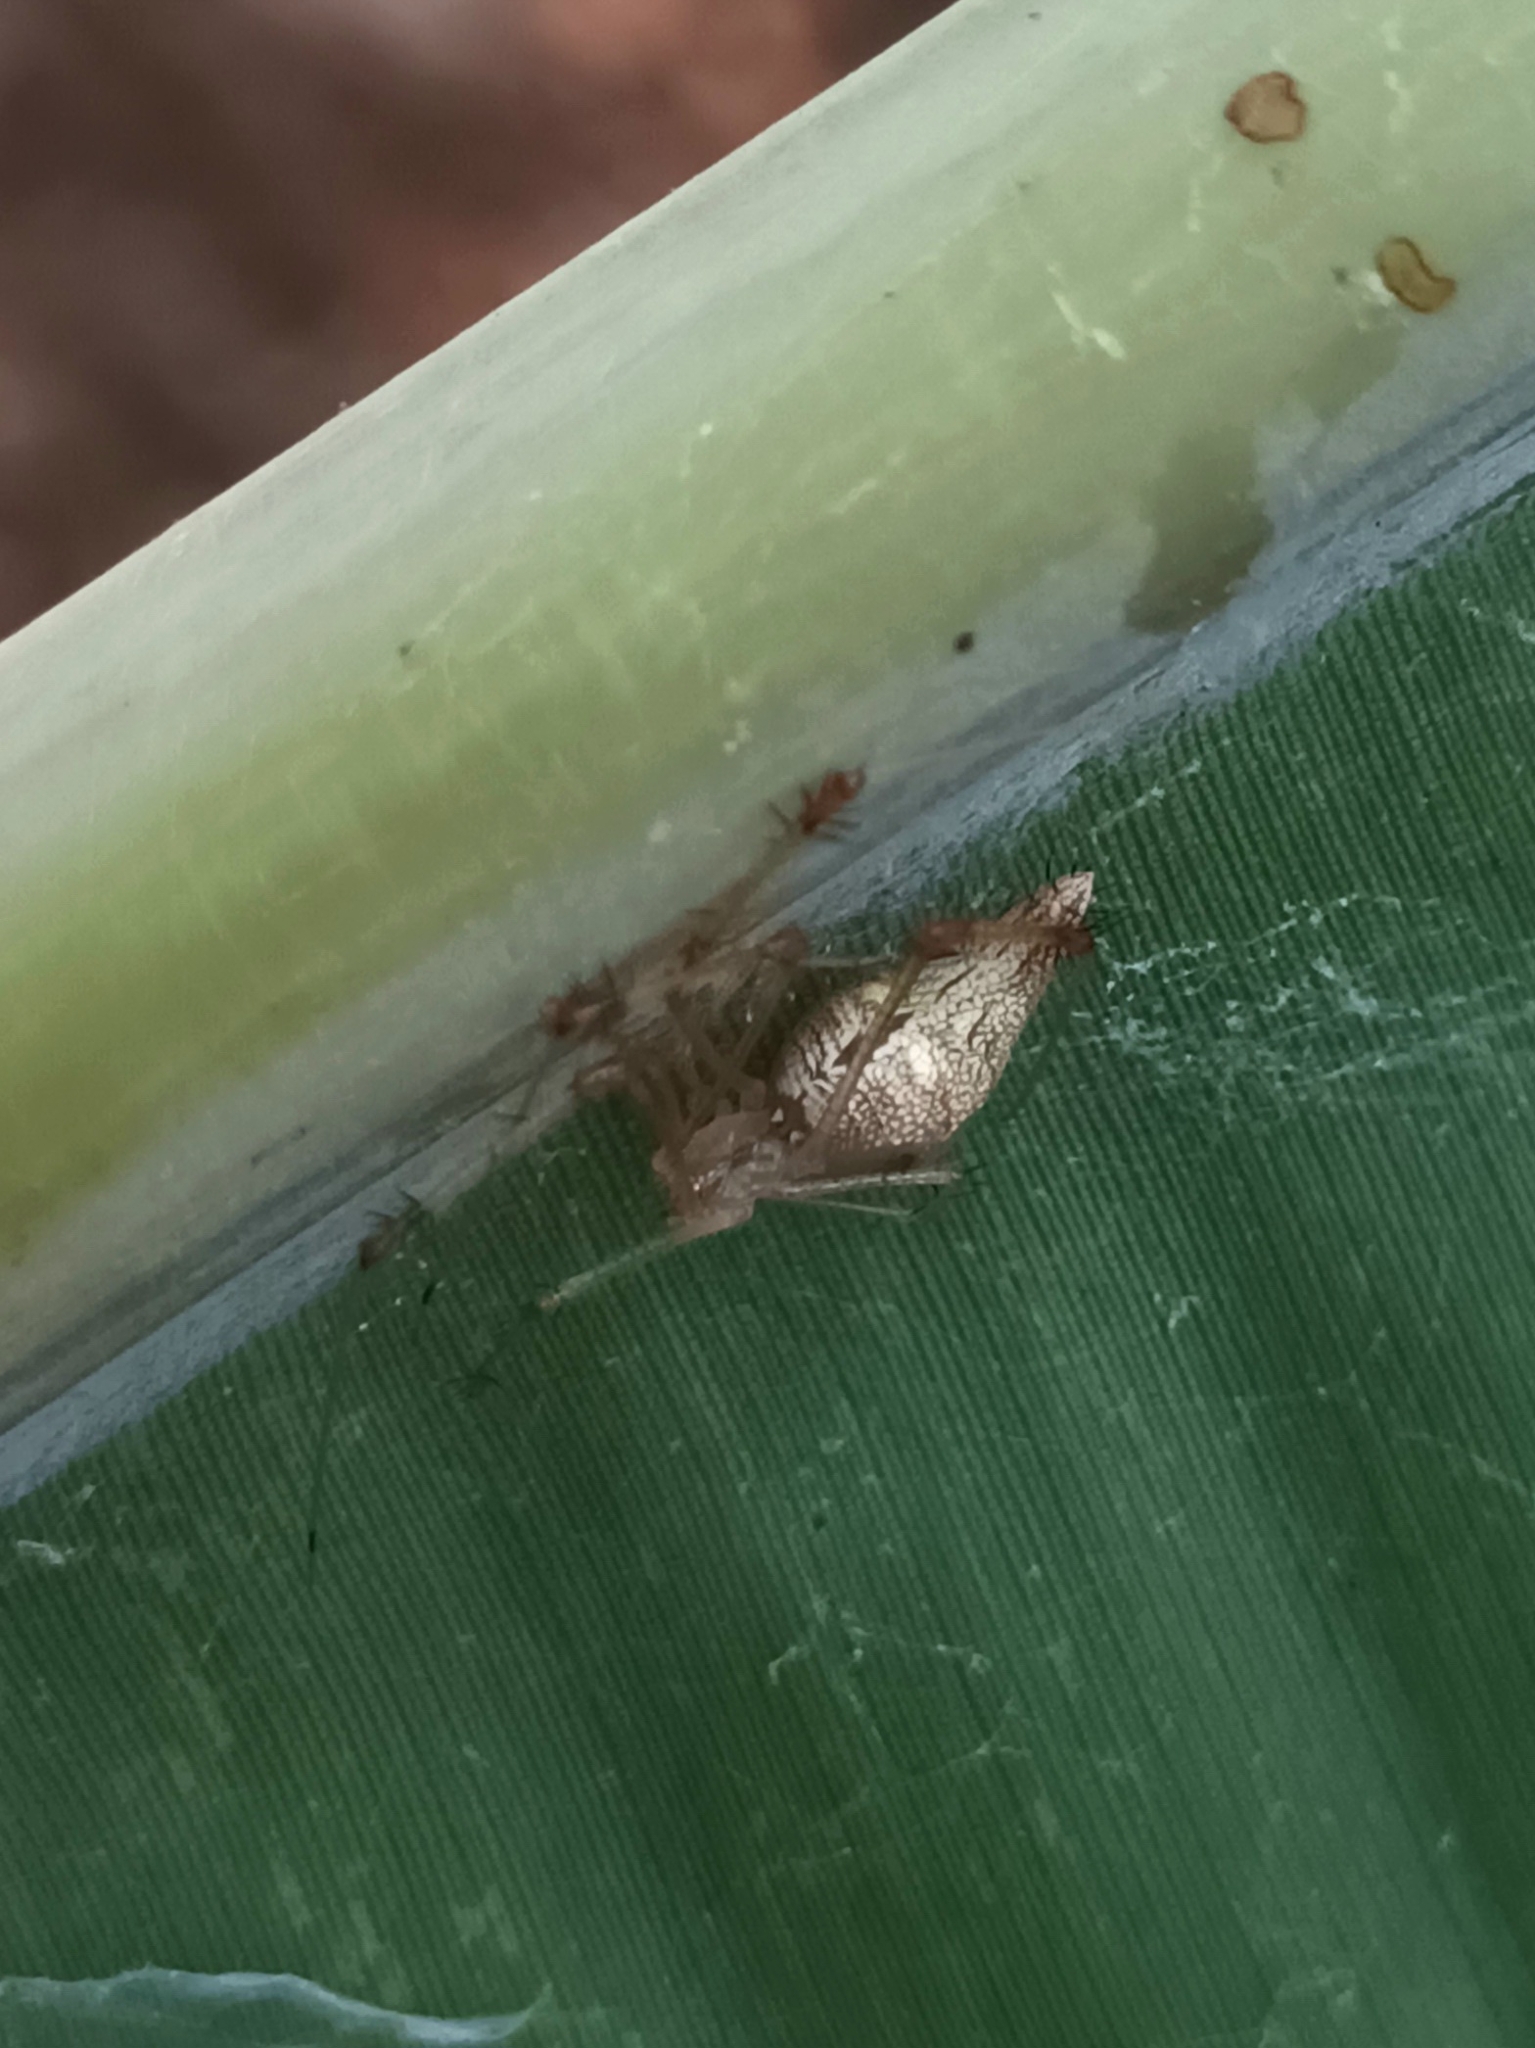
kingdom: Animalia
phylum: Arthropoda
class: Arachnida
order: Araneae
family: Theridiidae
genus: Meotipa
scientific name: Meotipa sahyadri
